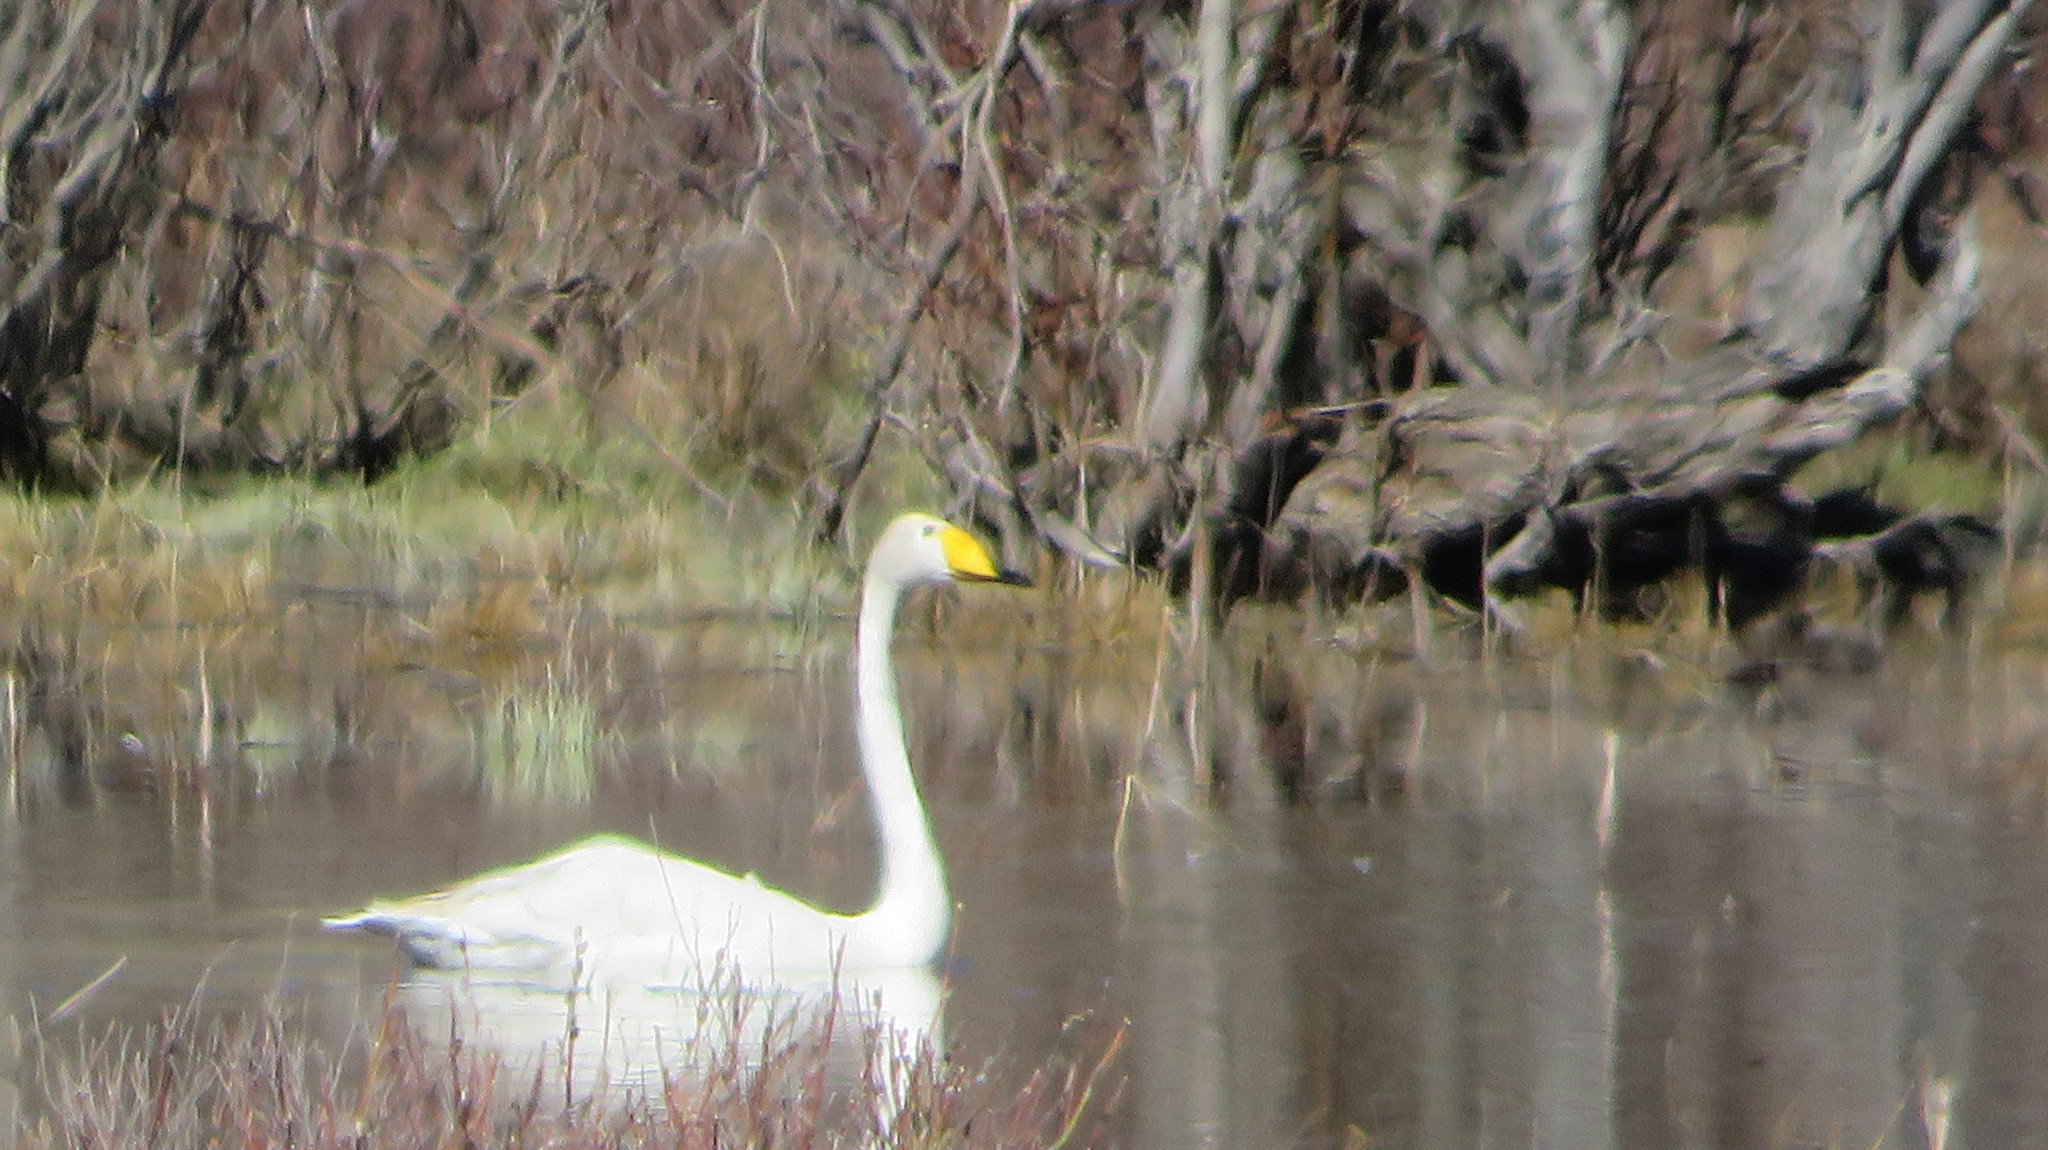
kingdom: Animalia
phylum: Chordata
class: Aves
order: Anseriformes
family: Anatidae
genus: Cygnus
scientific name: Cygnus cygnus
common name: Whooper swan
